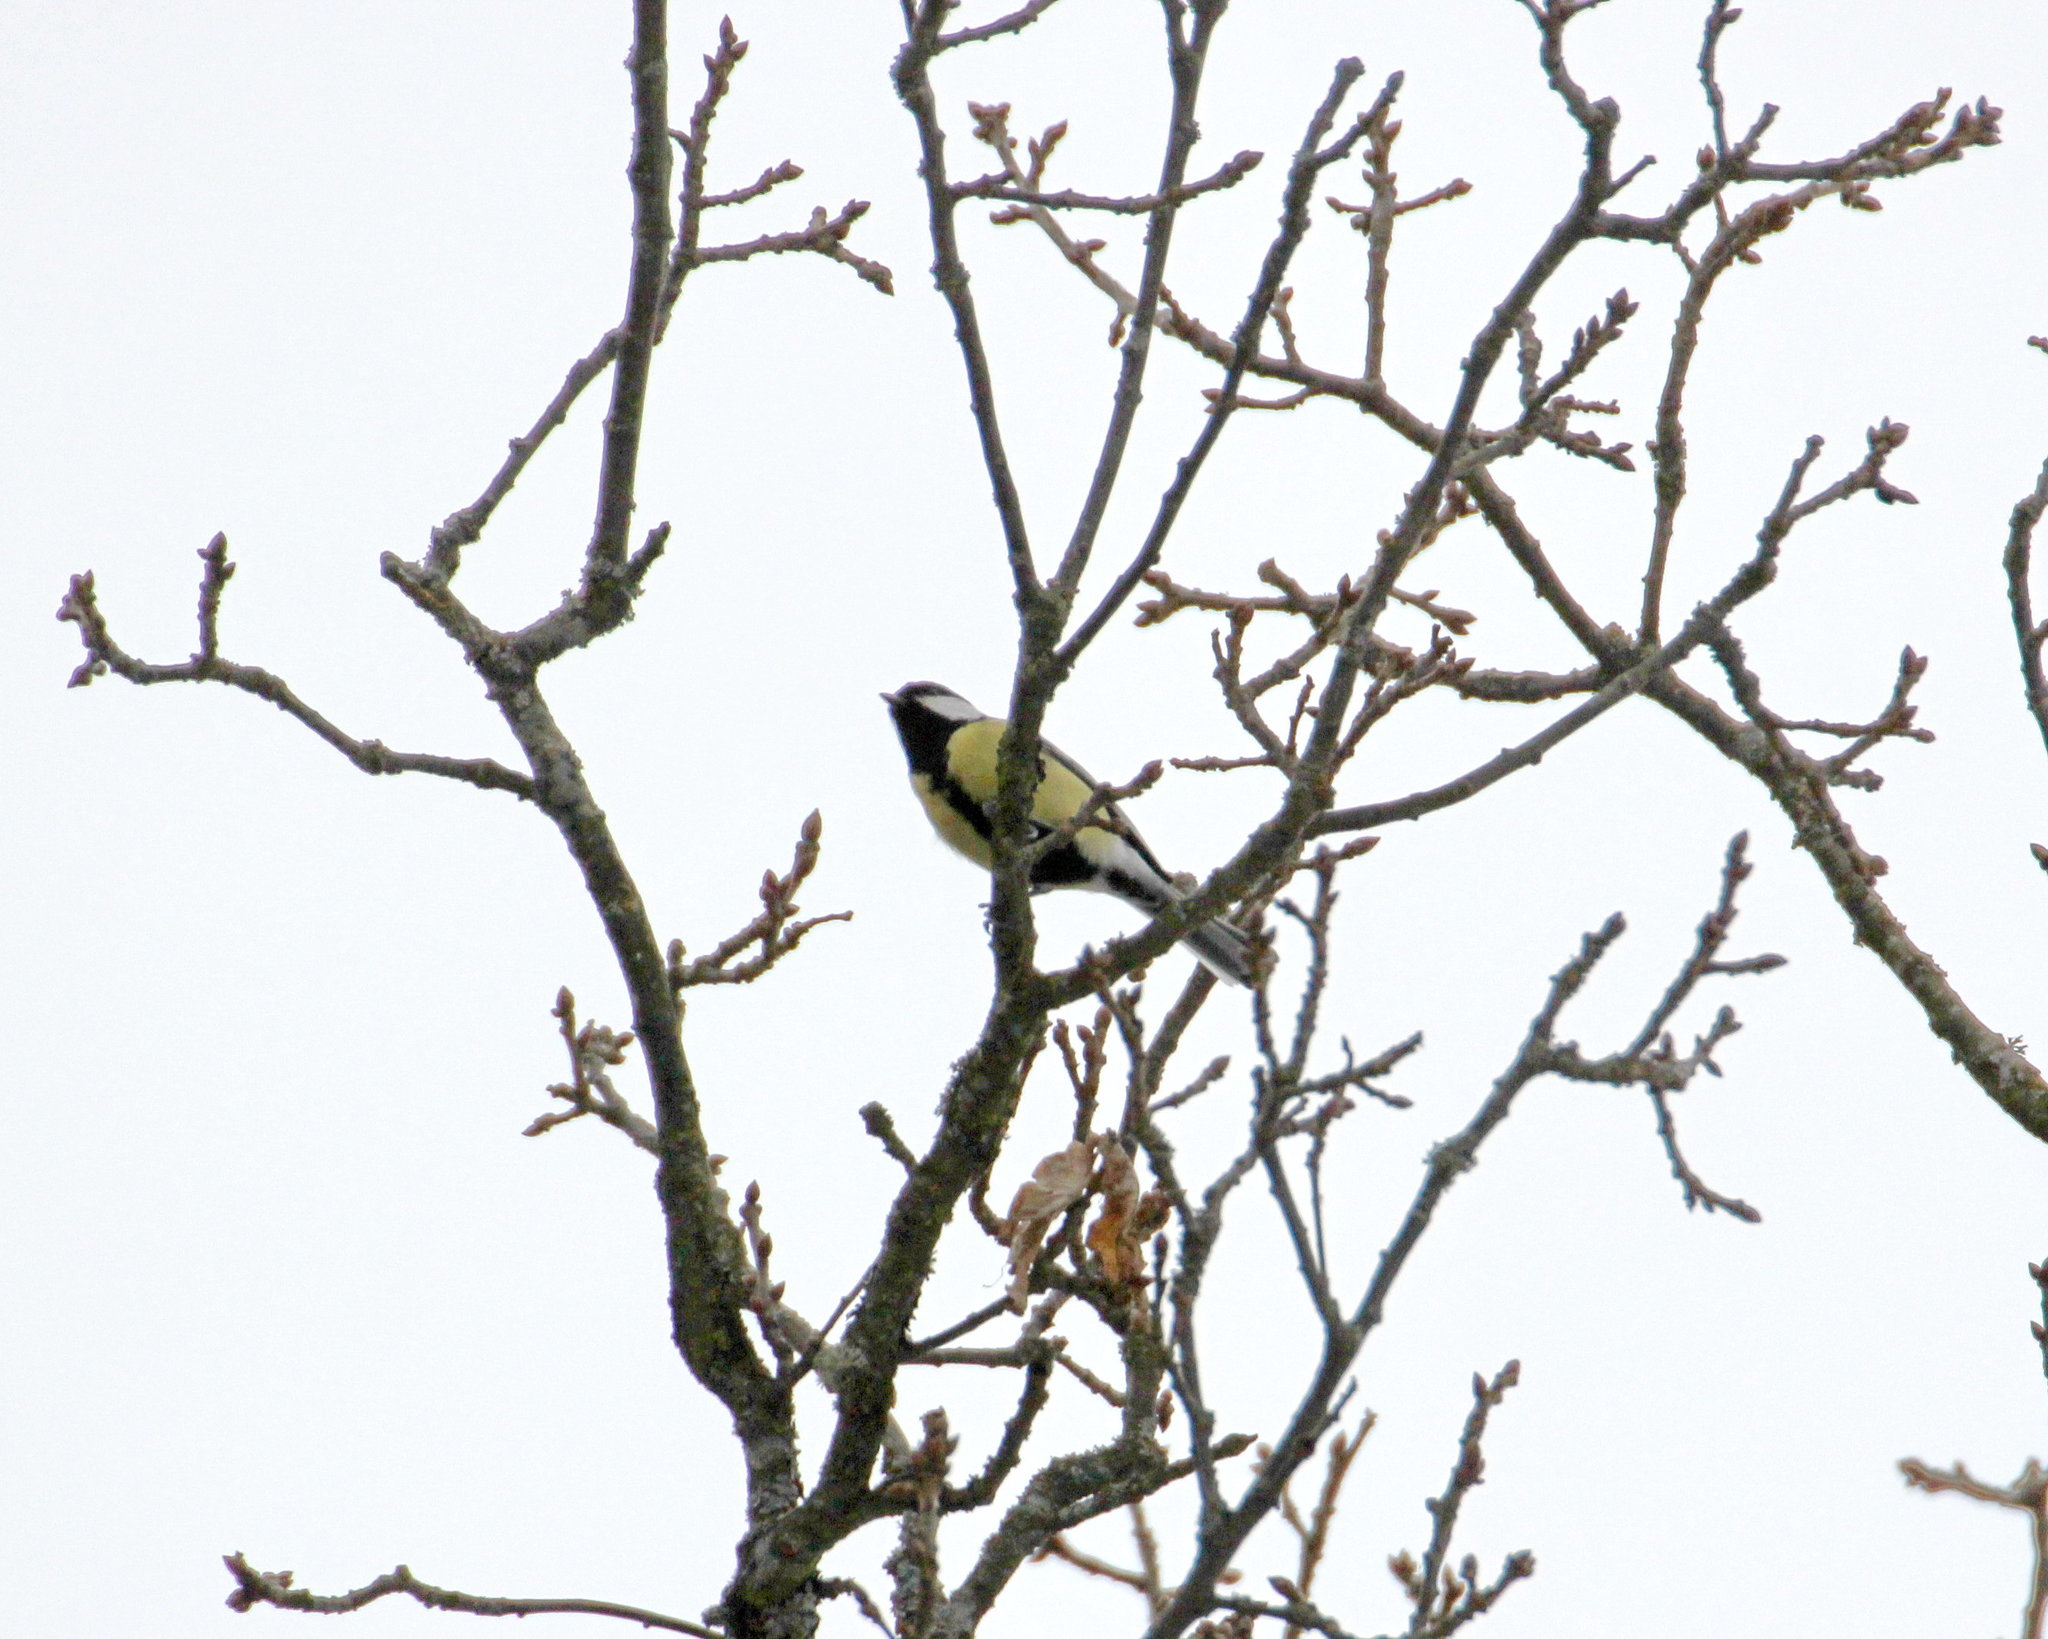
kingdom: Animalia
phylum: Chordata
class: Aves
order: Passeriformes
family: Paridae
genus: Parus
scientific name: Parus major
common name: Great tit
